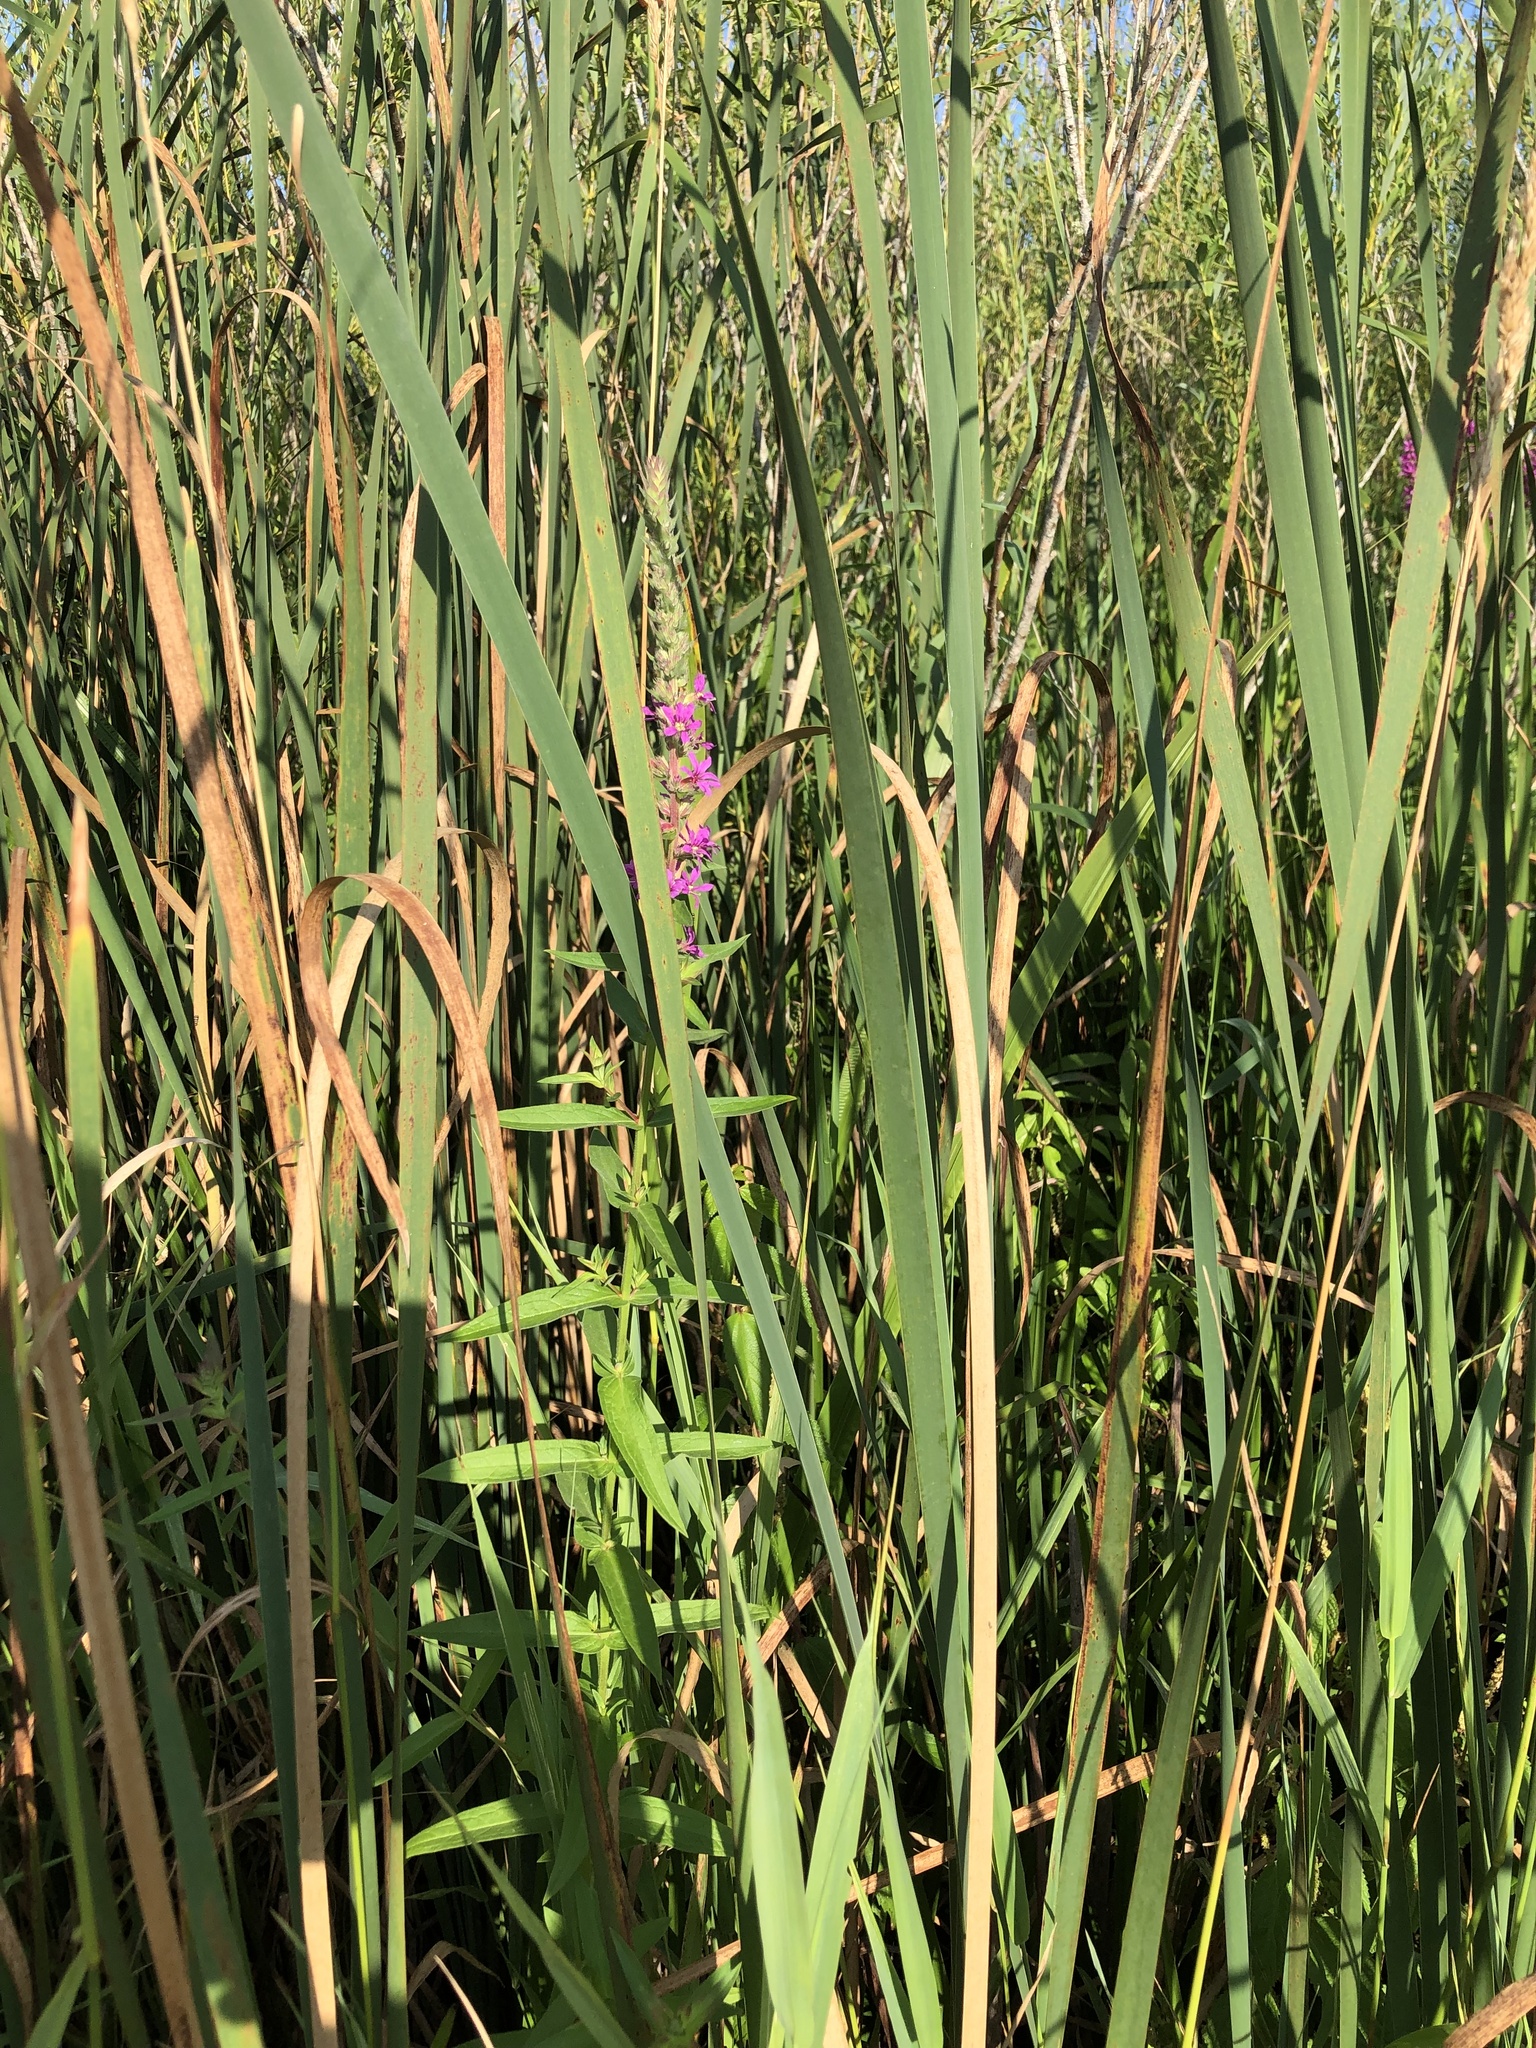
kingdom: Plantae
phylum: Tracheophyta
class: Magnoliopsida
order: Myrtales
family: Lythraceae
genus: Lythrum
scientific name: Lythrum salicaria
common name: Purple loosestrife
